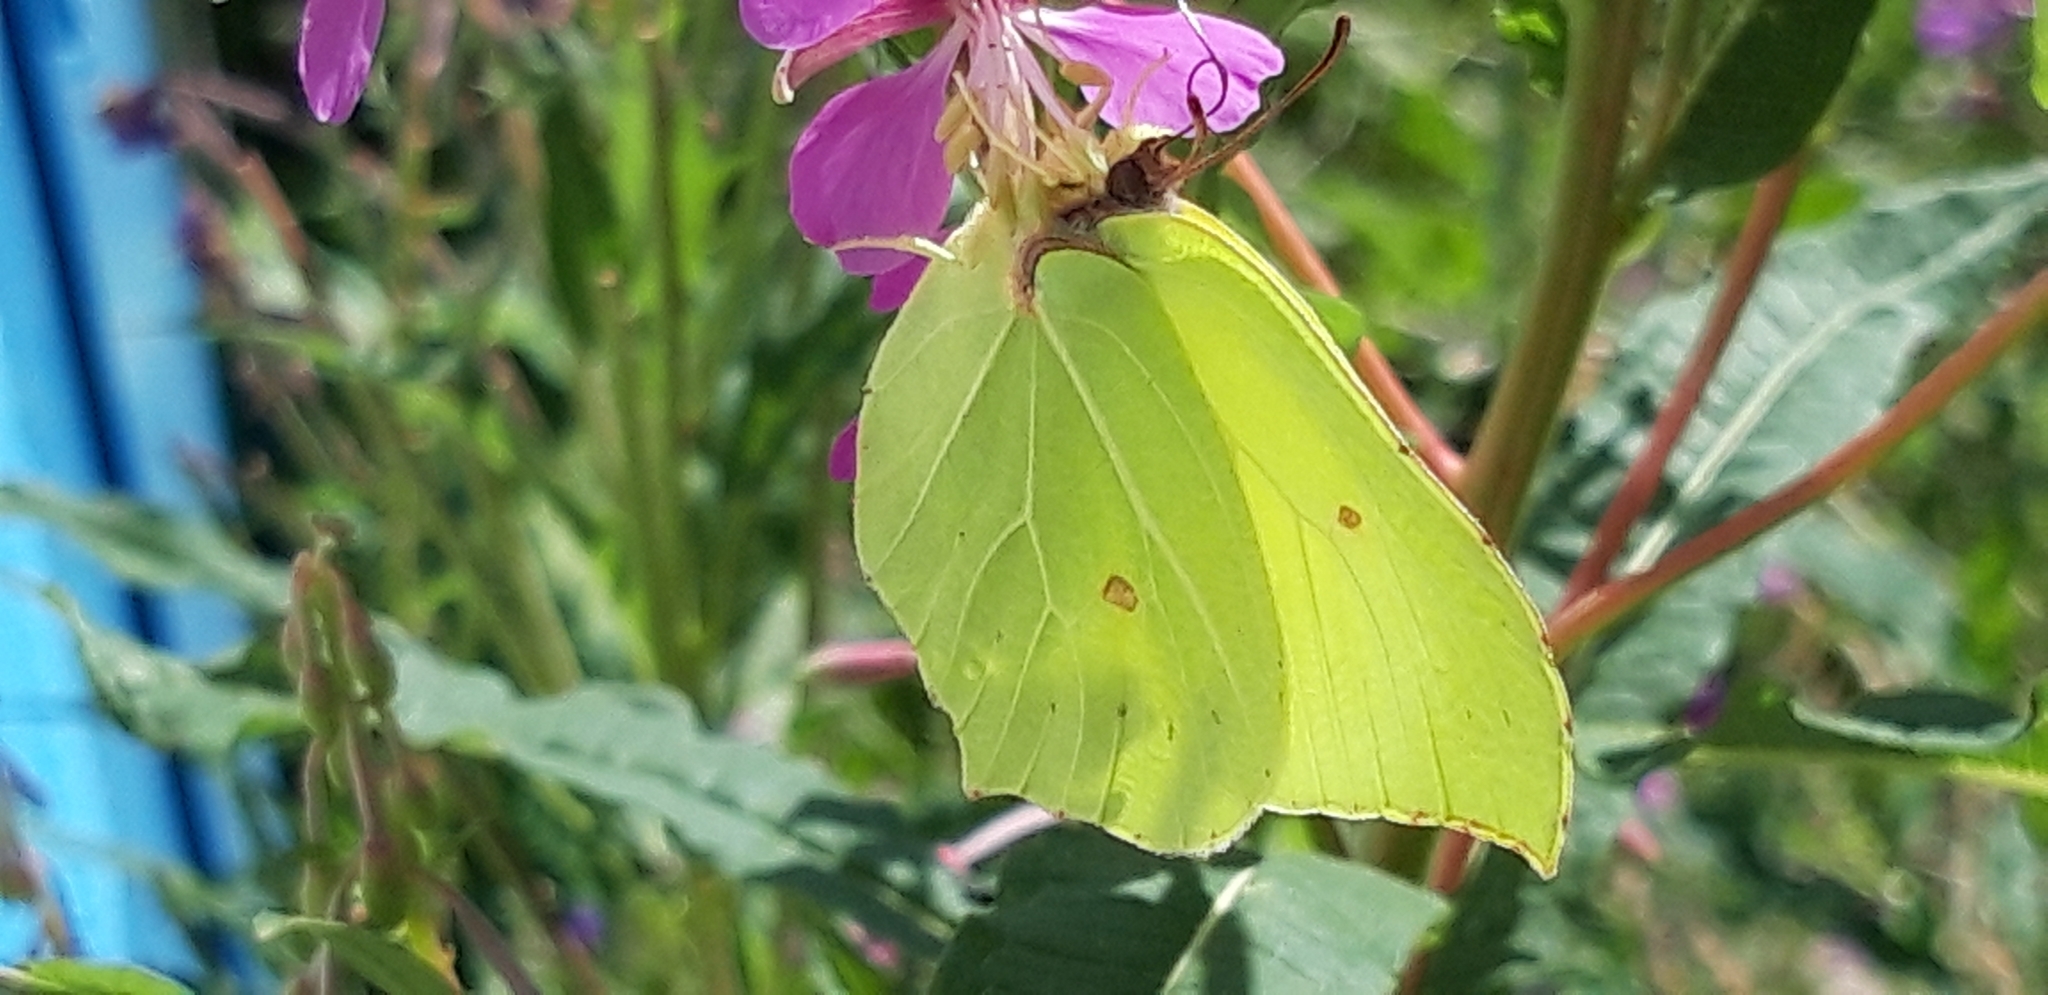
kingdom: Animalia
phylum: Arthropoda
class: Insecta
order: Lepidoptera
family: Pieridae
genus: Gonepteryx
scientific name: Gonepteryx rhamni
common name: Brimstone
